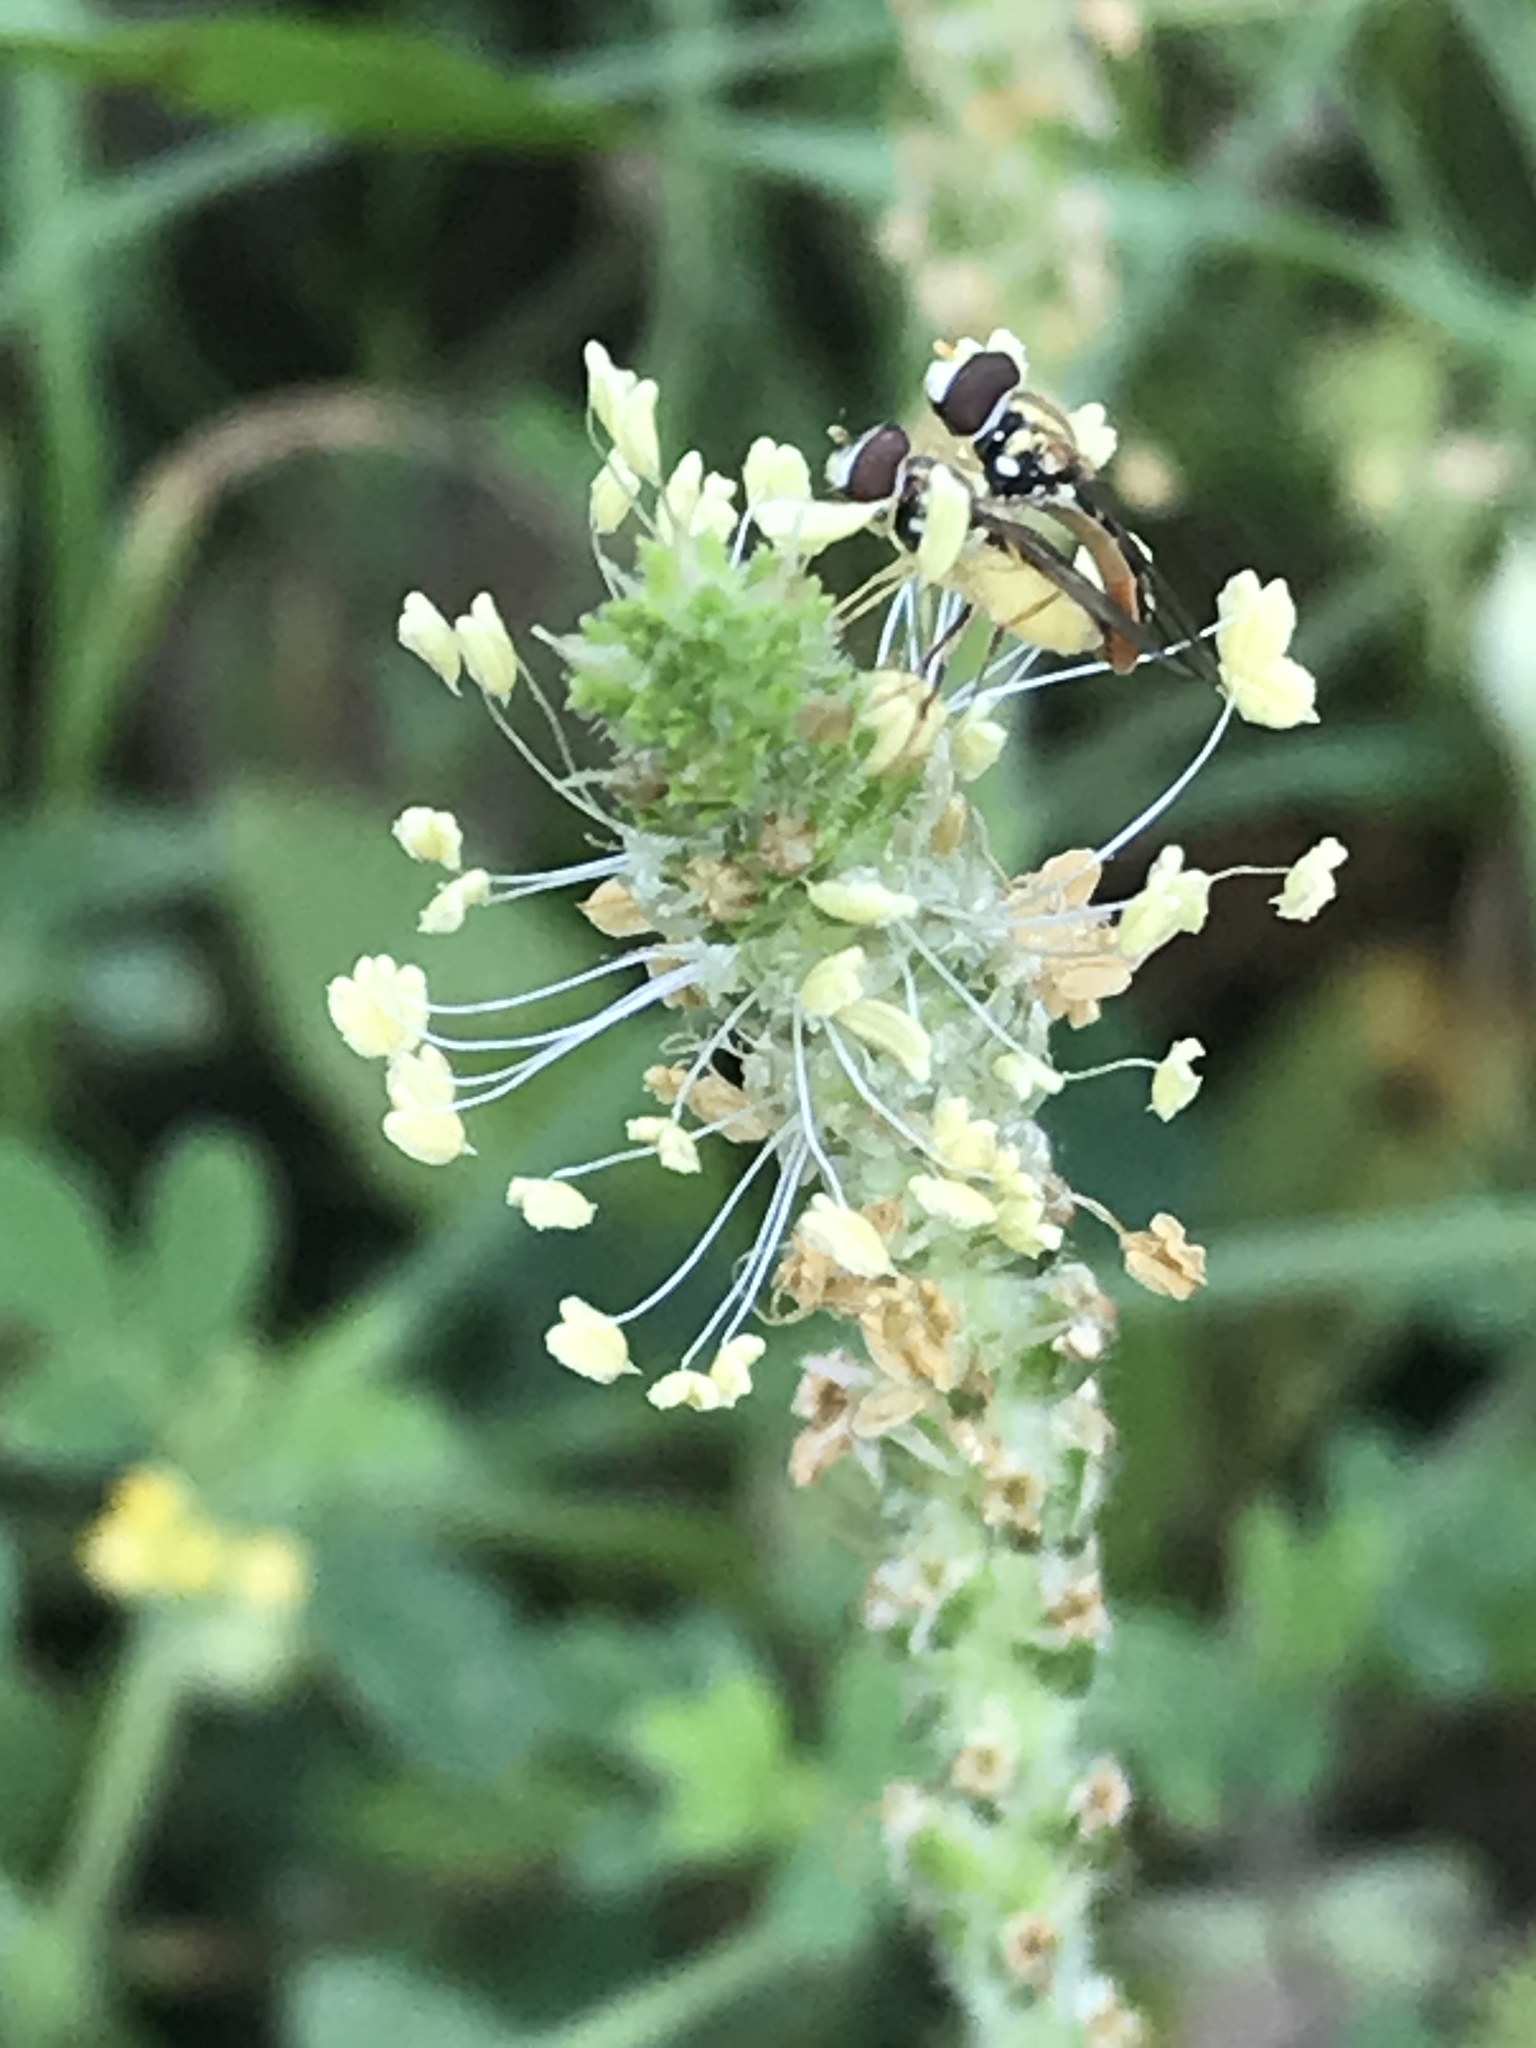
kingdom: Animalia
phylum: Arthropoda
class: Insecta
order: Diptera
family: Syrphidae
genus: Toxomerus
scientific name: Toxomerus marginatus
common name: Syrphid fly
